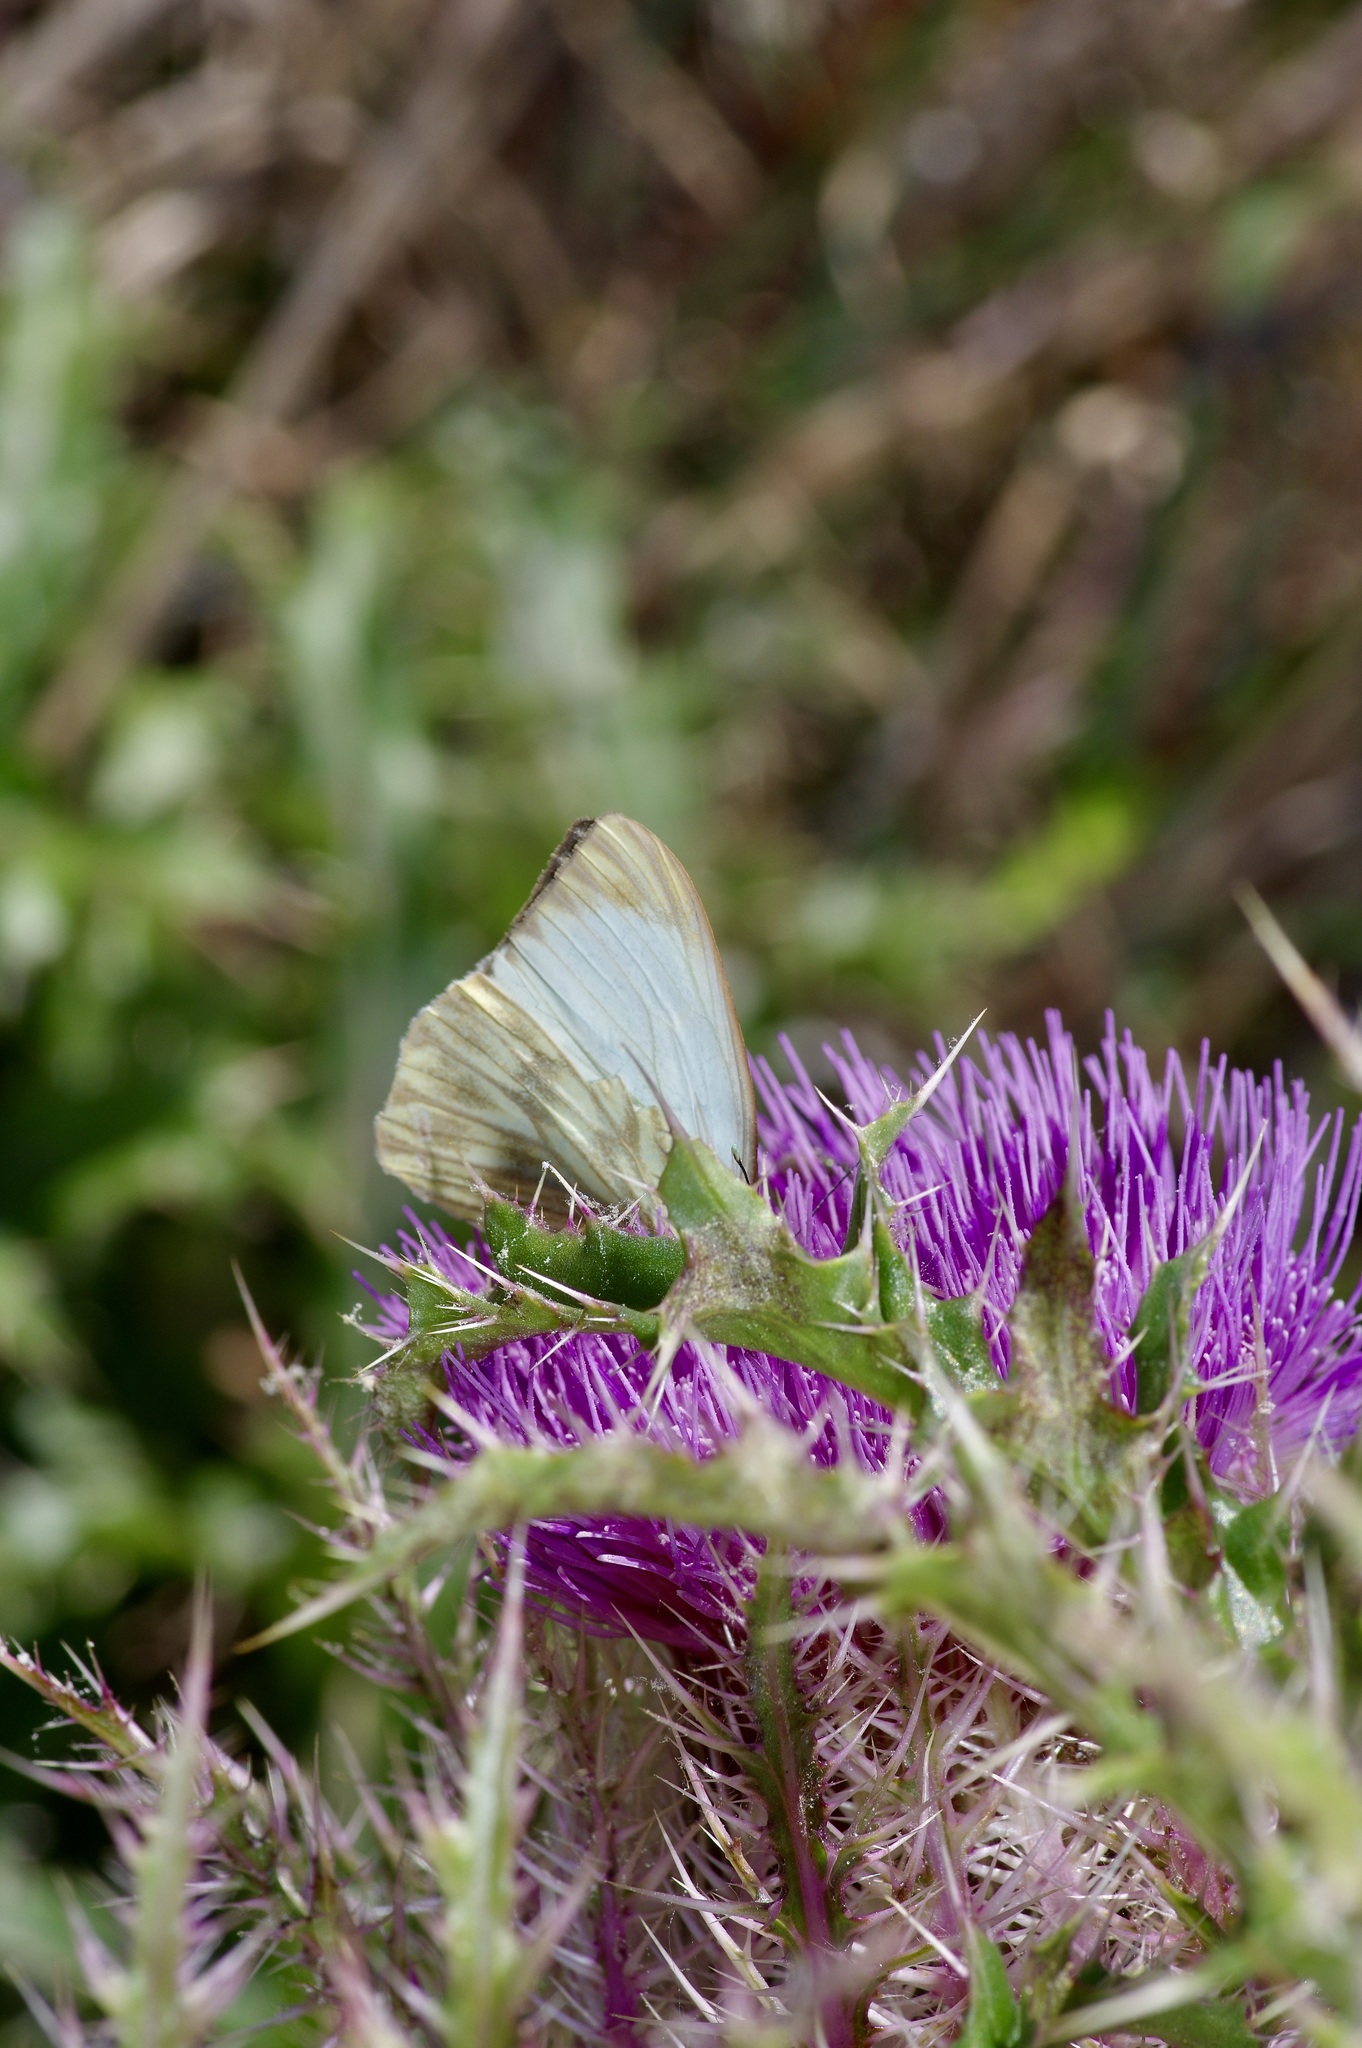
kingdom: Animalia
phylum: Arthropoda
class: Insecta
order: Lepidoptera
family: Pieridae
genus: Ascia
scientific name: Ascia monuste
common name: Great southern white
